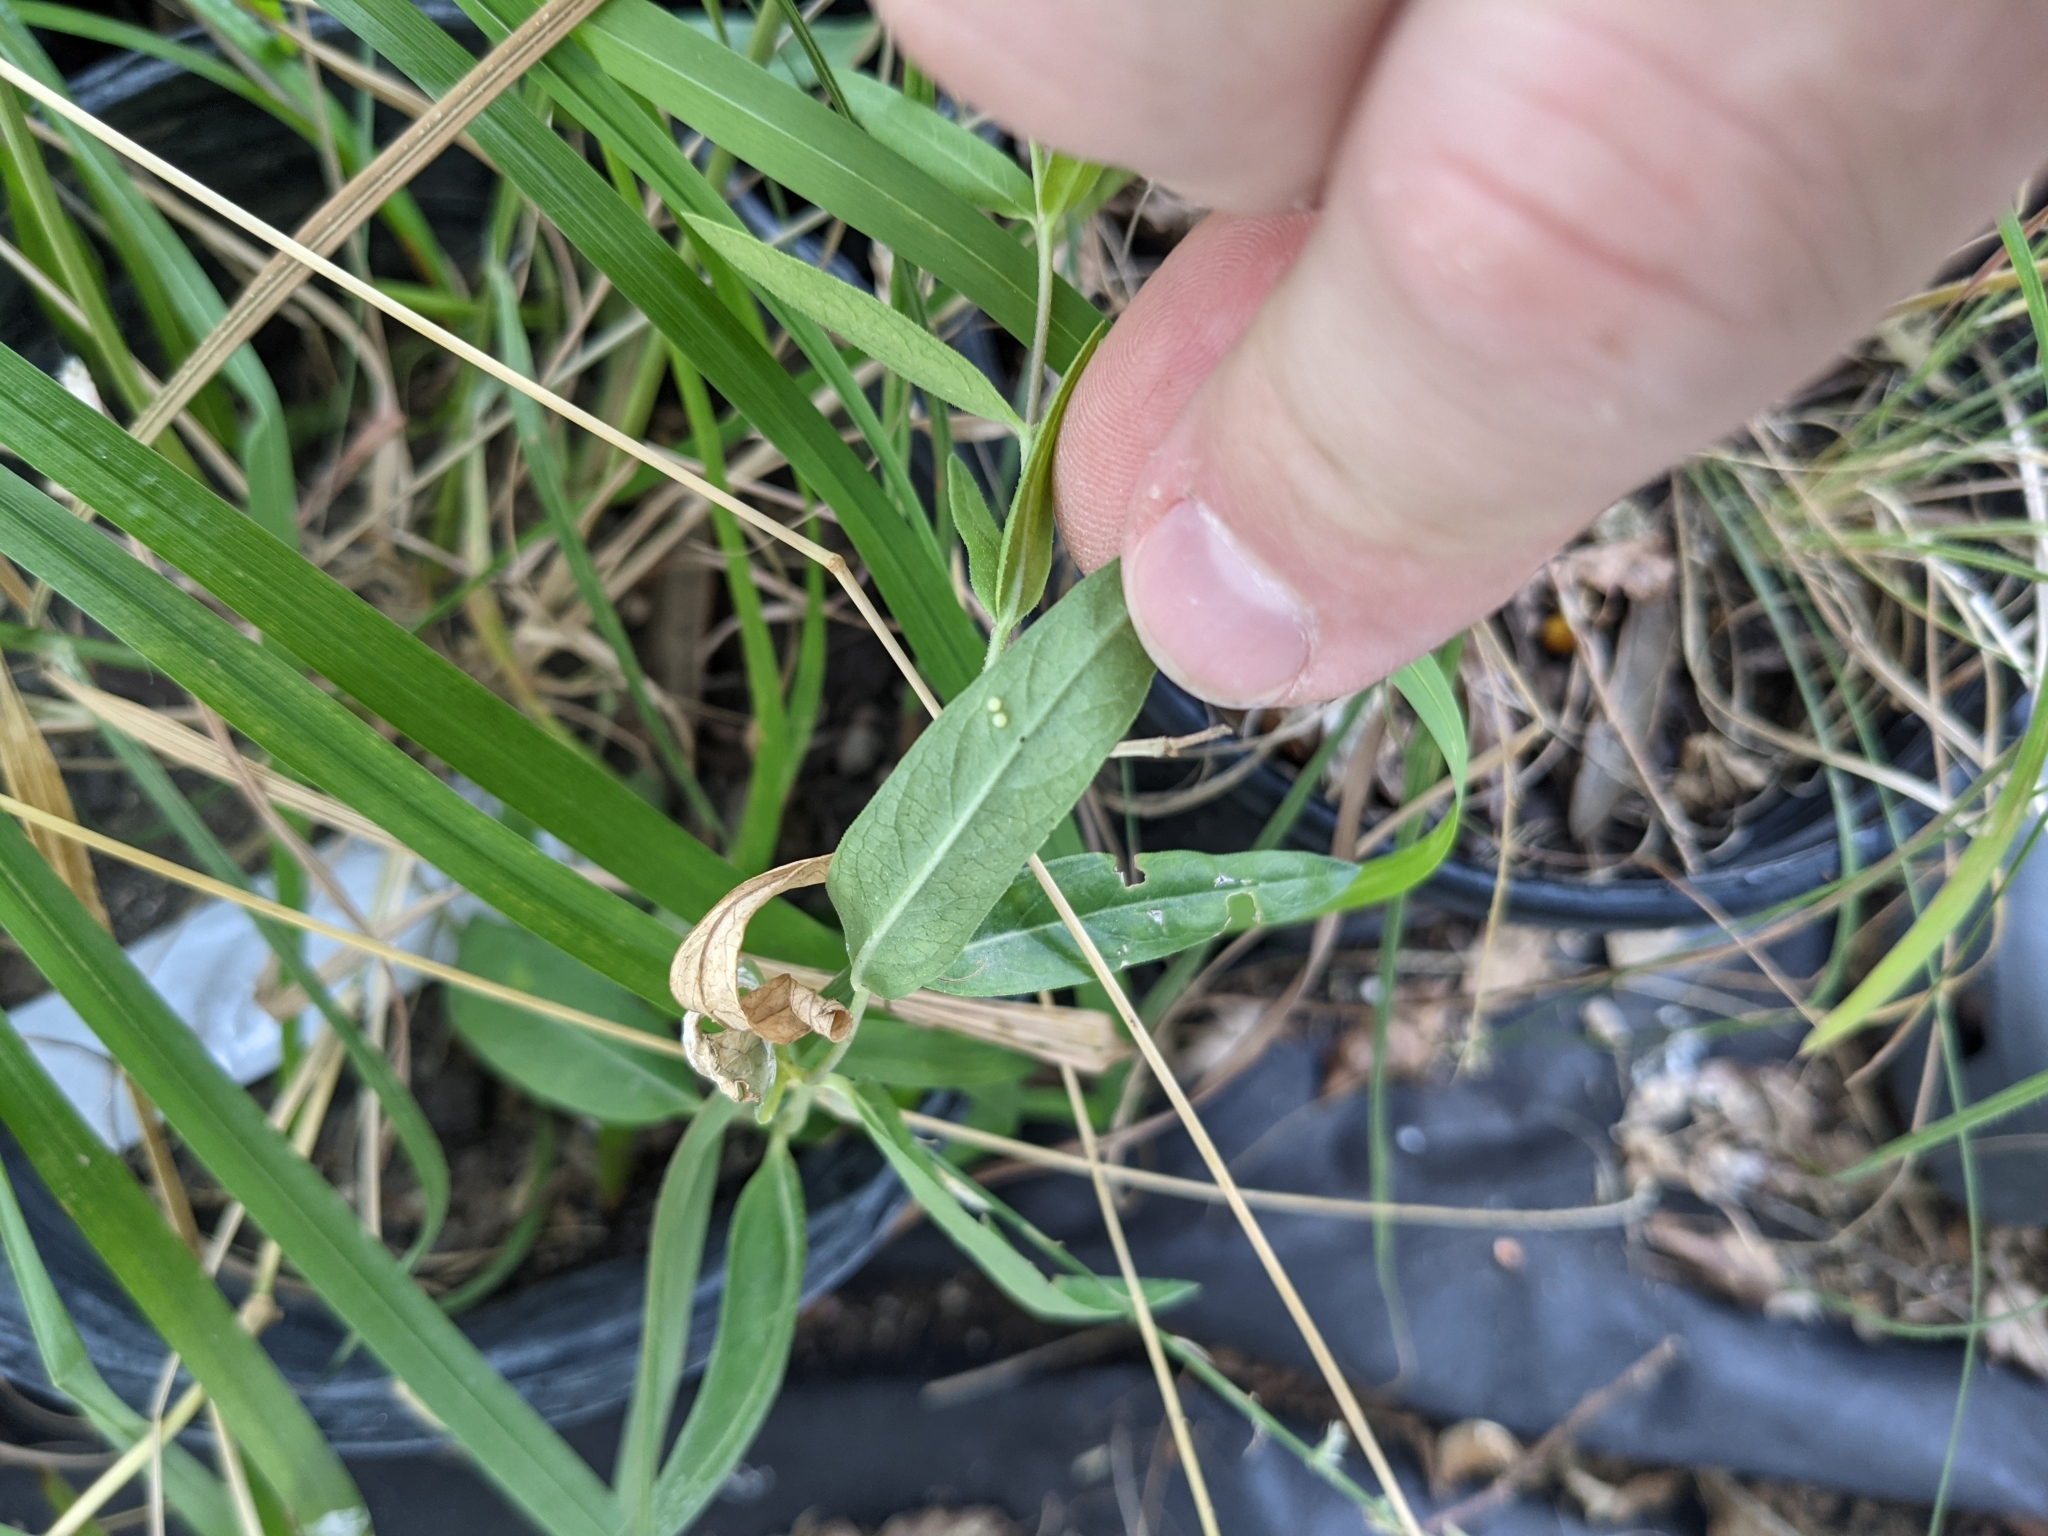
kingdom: Animalia
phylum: Arthropoda
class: Insecta
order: Lepidoptera
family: Nymphalidae
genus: Danaus
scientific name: Danaus gilippus
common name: Queen
